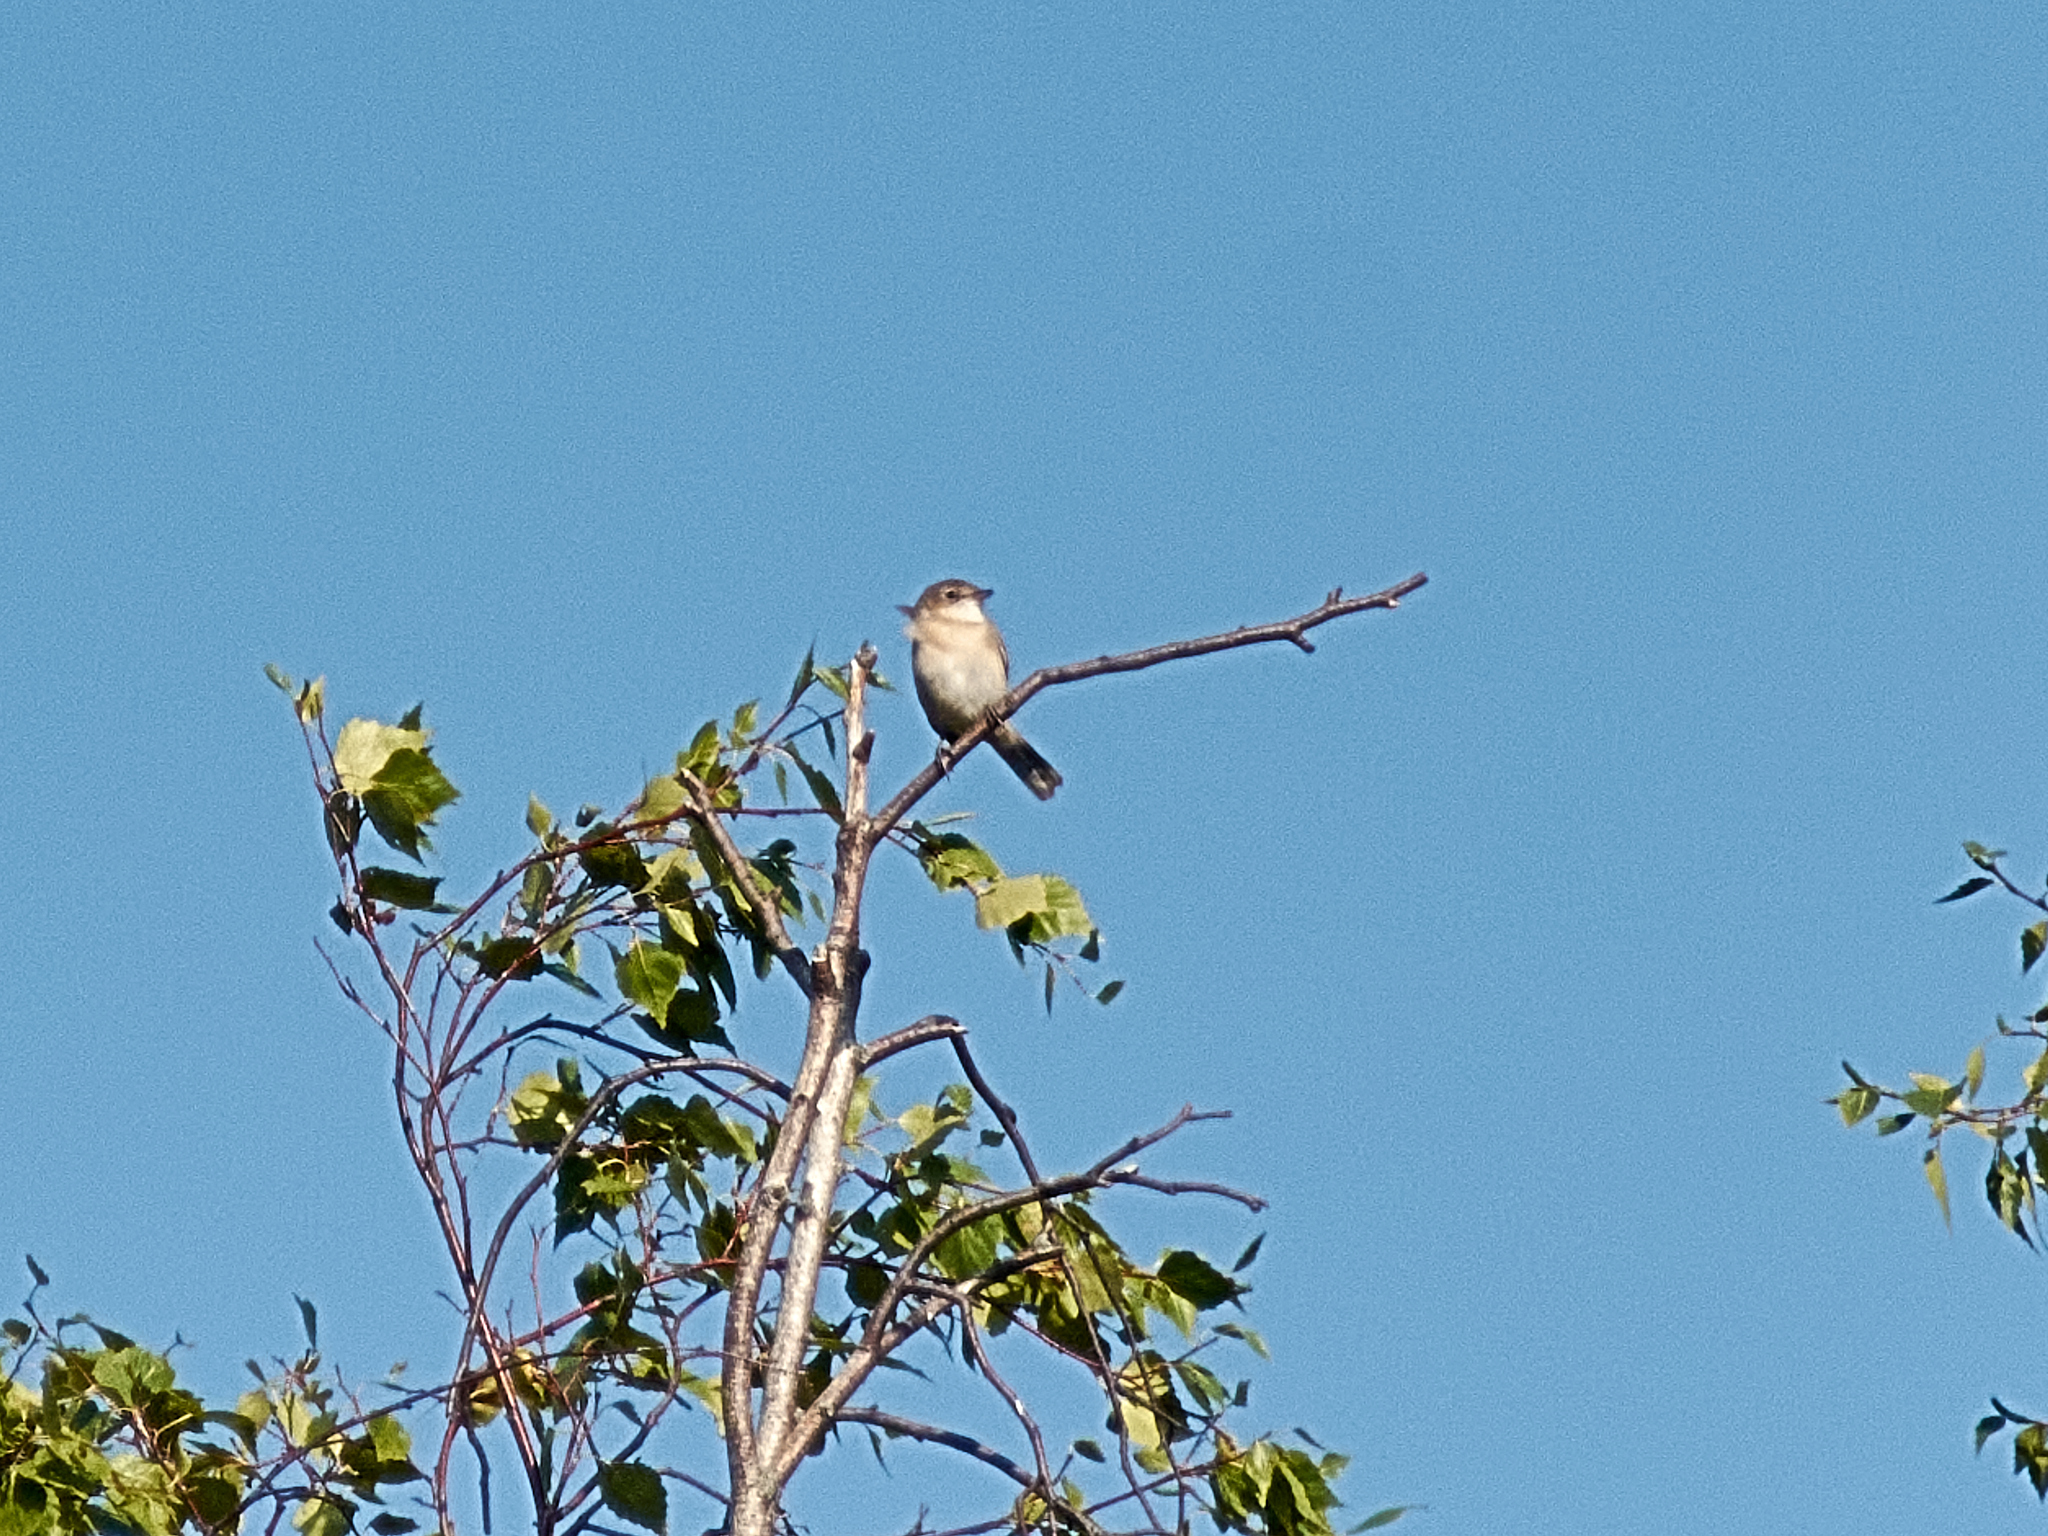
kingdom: Animalia
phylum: Chordata
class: Aves
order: Passeriformes
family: Sylviidae
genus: Sylvia
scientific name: Sylvia communis
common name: Common whitethroat
